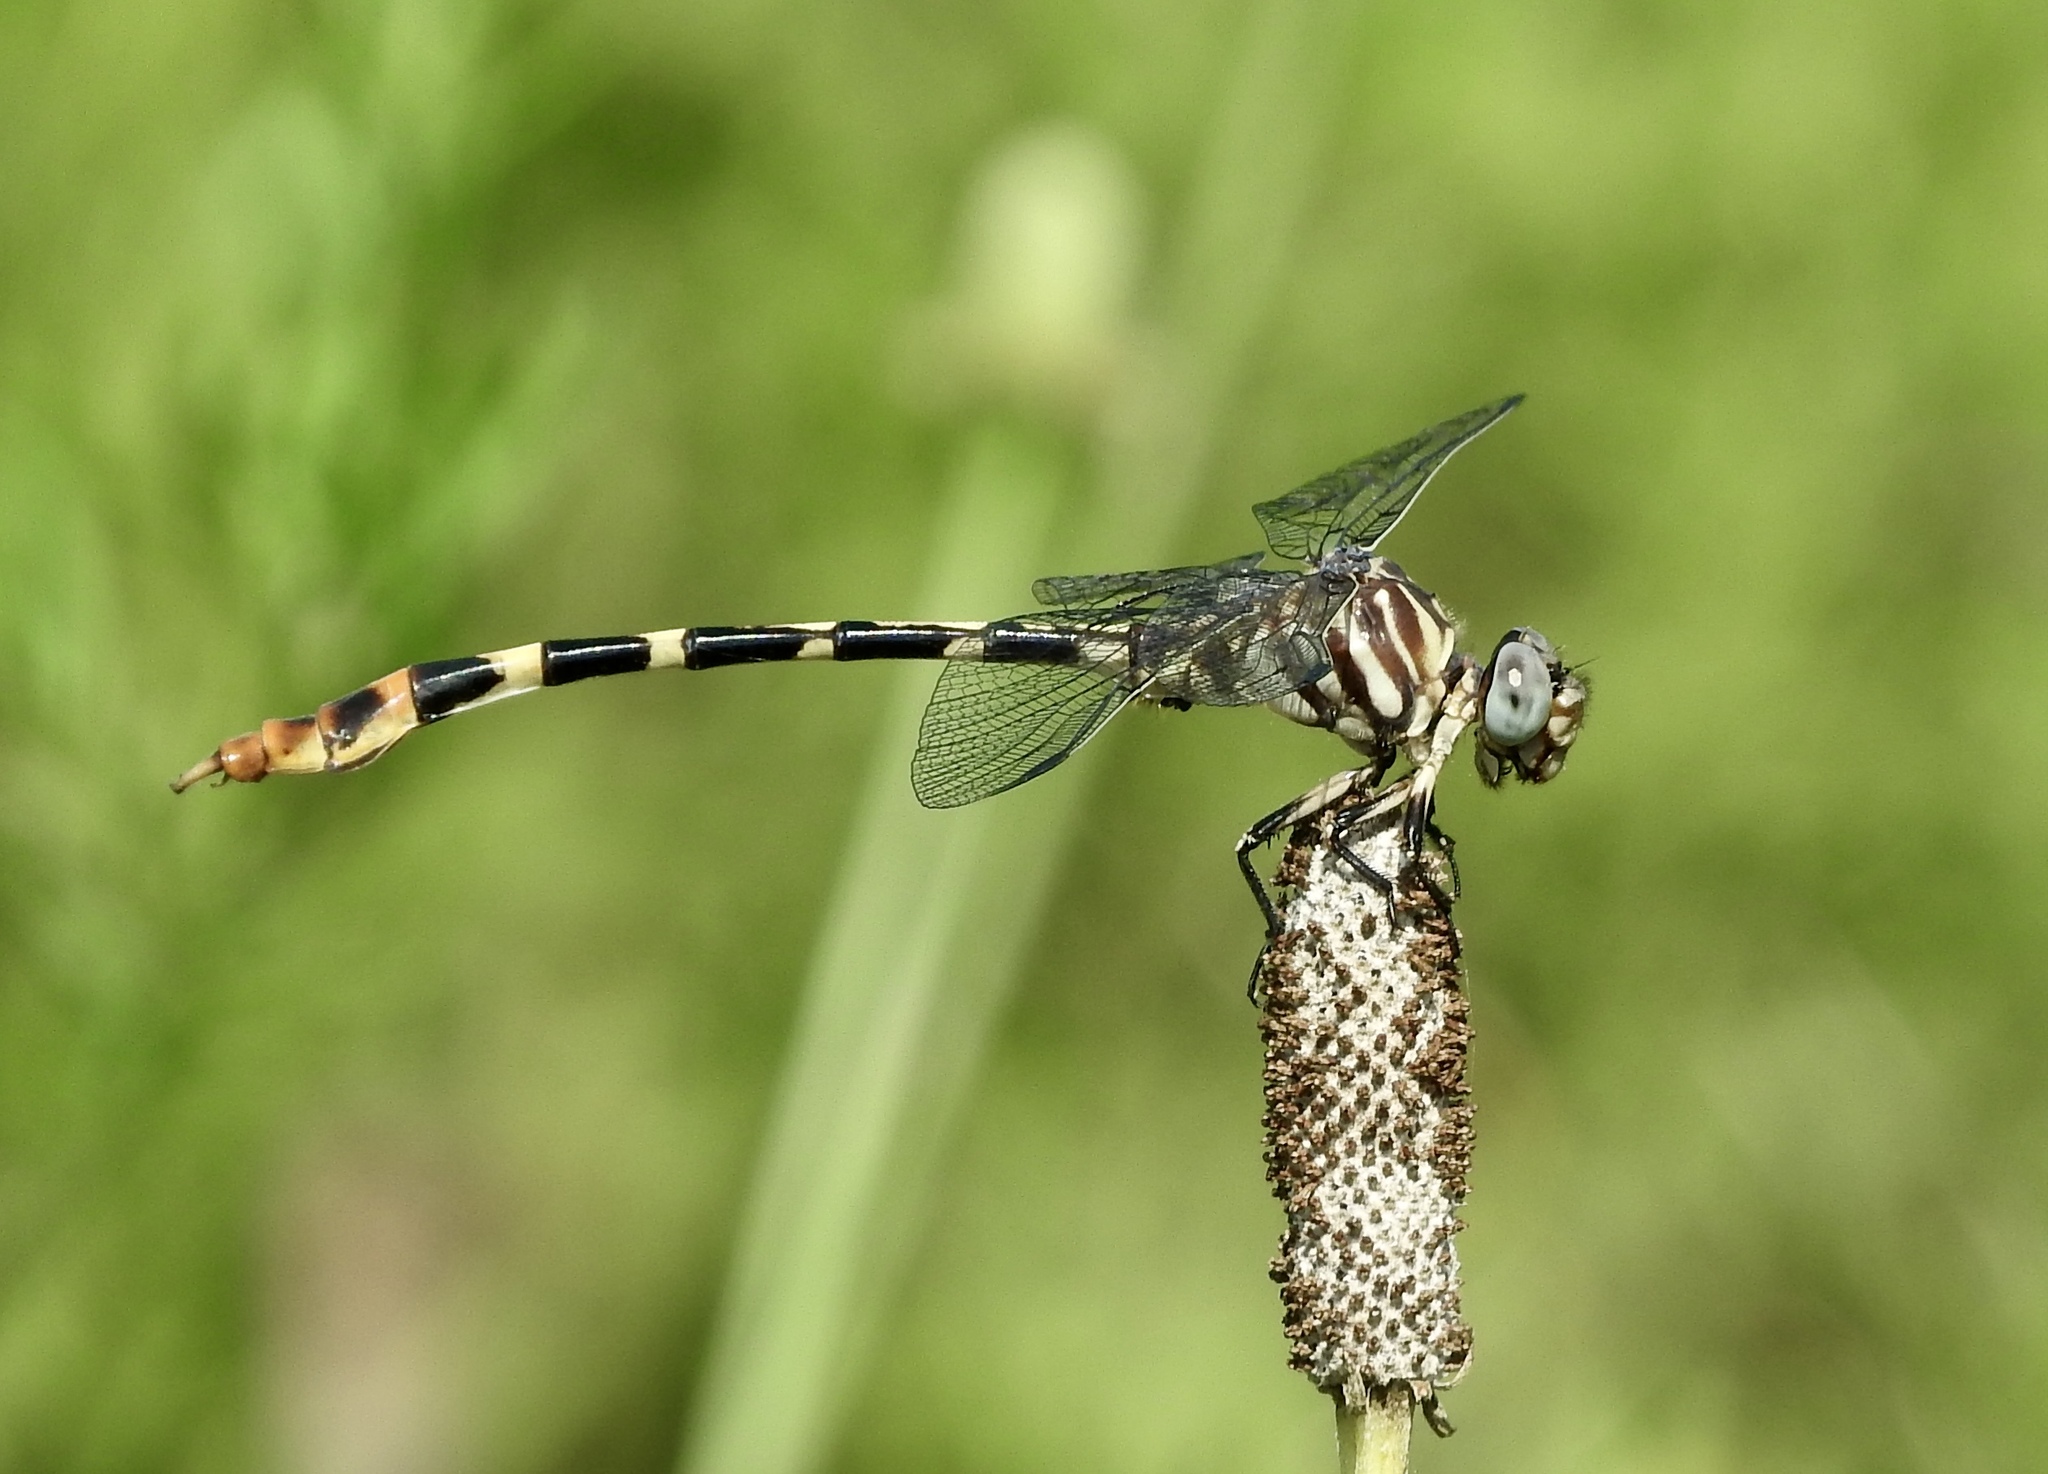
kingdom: Animalia
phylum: Arthropoda
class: Insecta
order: Odonata
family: Gomphidae
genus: Phyllogomphoides
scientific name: Phyllogomphoides stigmatus
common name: Four-striped leaftail
